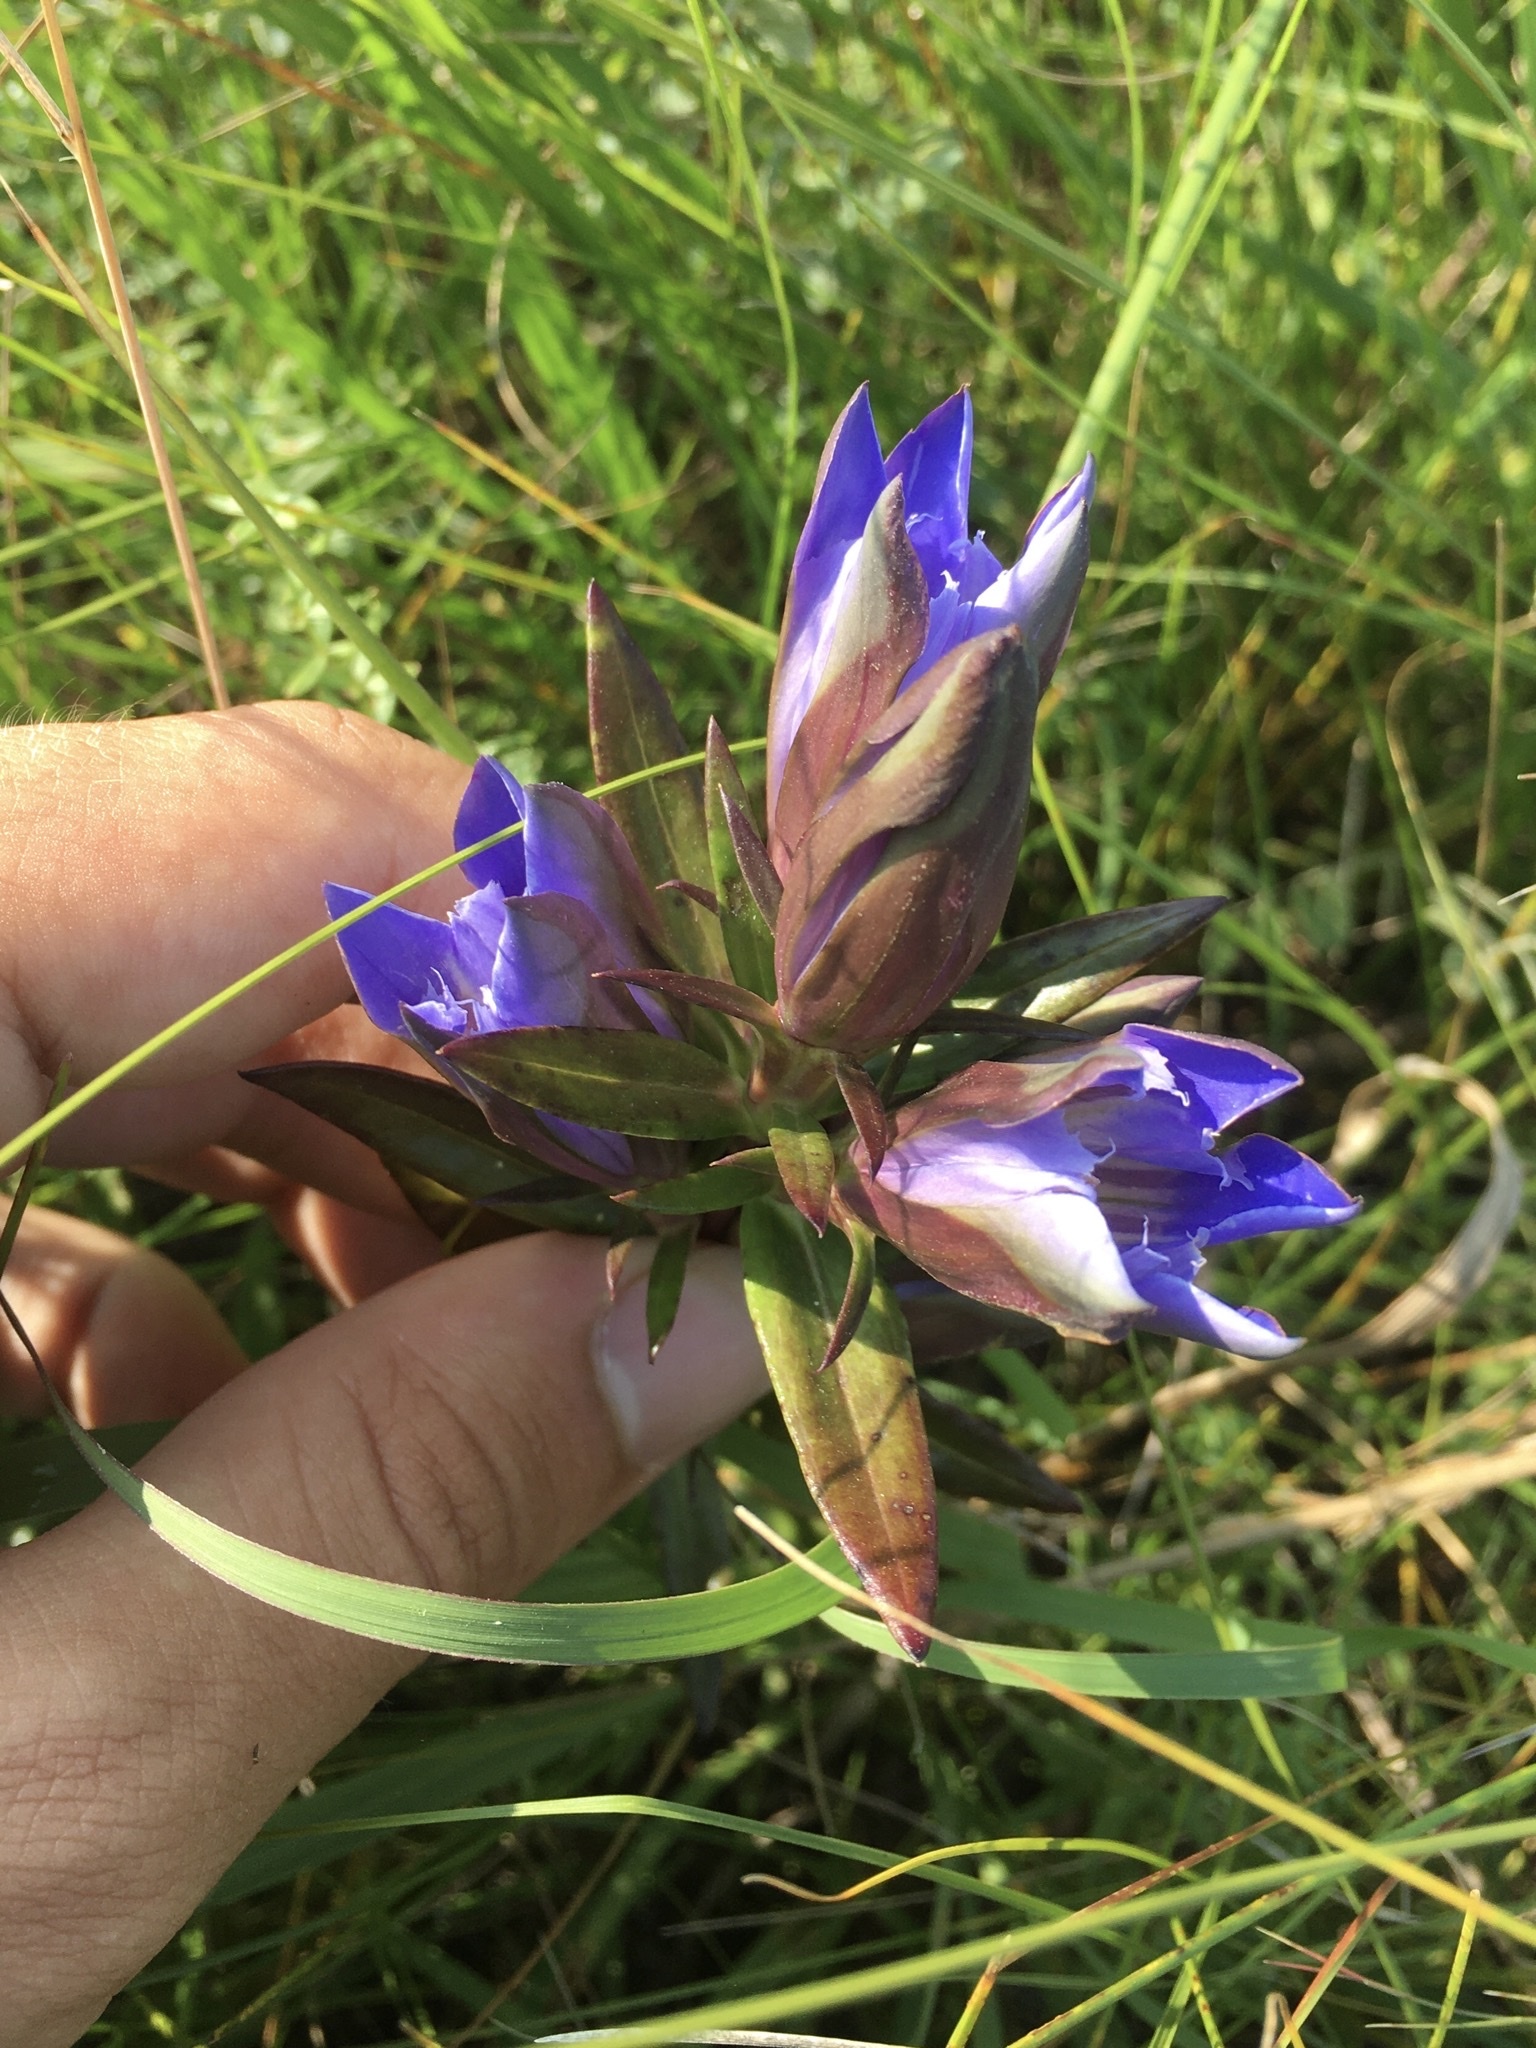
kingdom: Plantae
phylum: Tracheophyta
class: Magnoliopsida
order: Gentianales
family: Gentianaceae
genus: Gentiana
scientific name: Gentiana puberulenta
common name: Downy gentian
